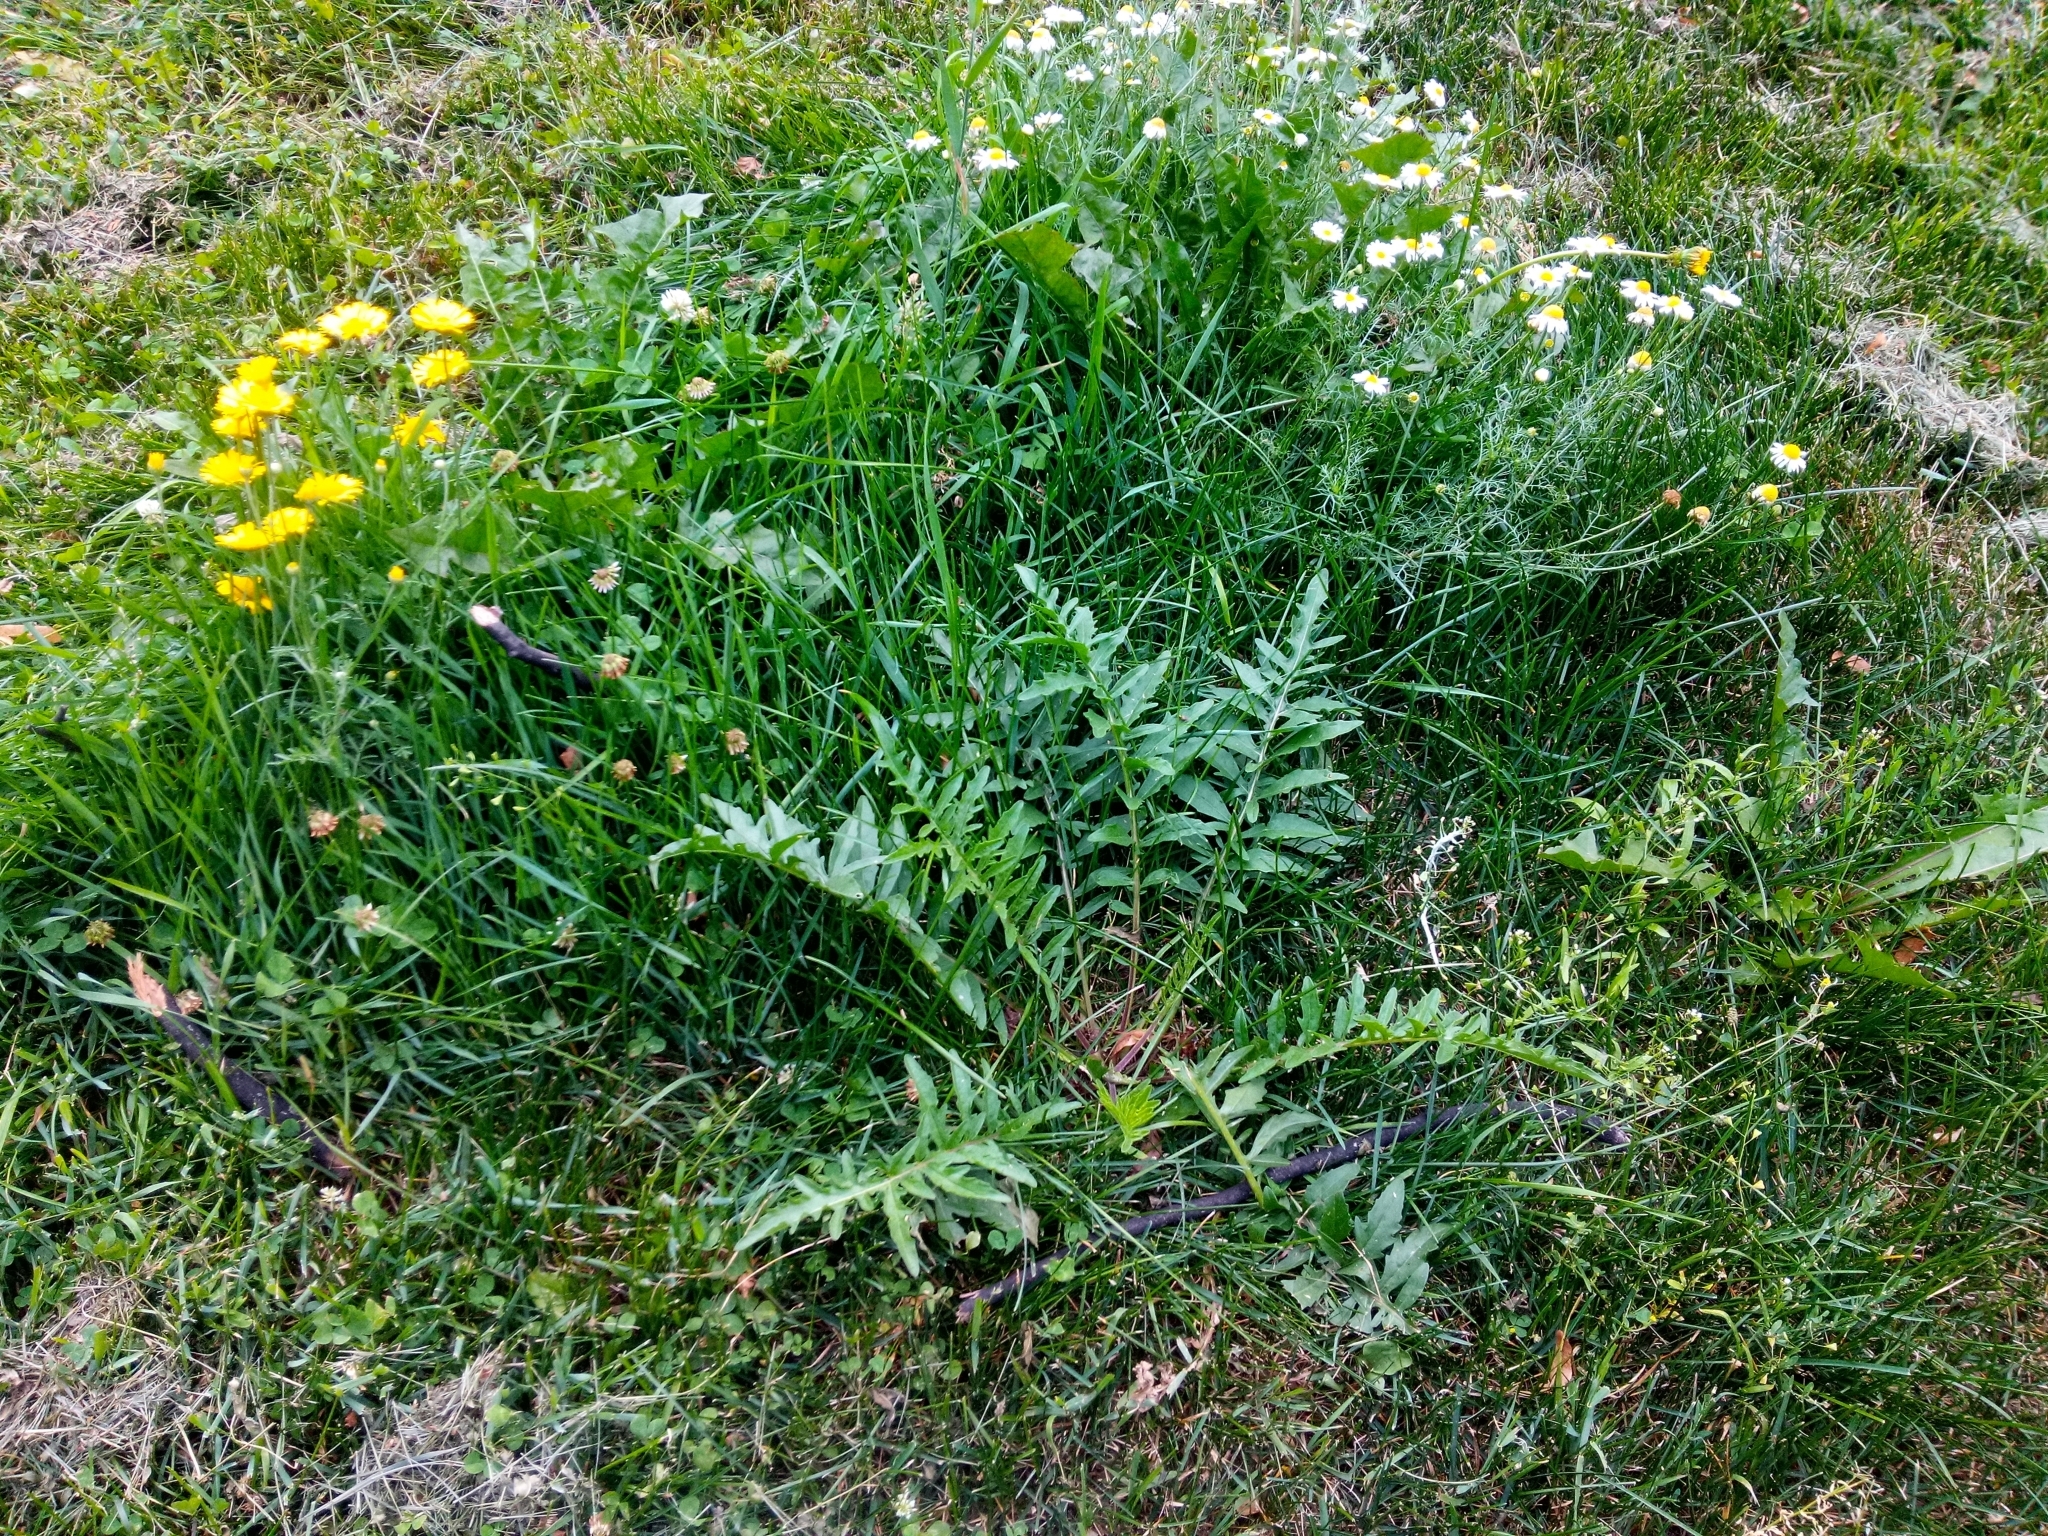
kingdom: Plantae
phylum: Tracheophyta
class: Magnoliopsida
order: Asterales
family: Asteraceae
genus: Centaurea
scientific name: Centaurea scabiosa
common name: Greater knapweed
